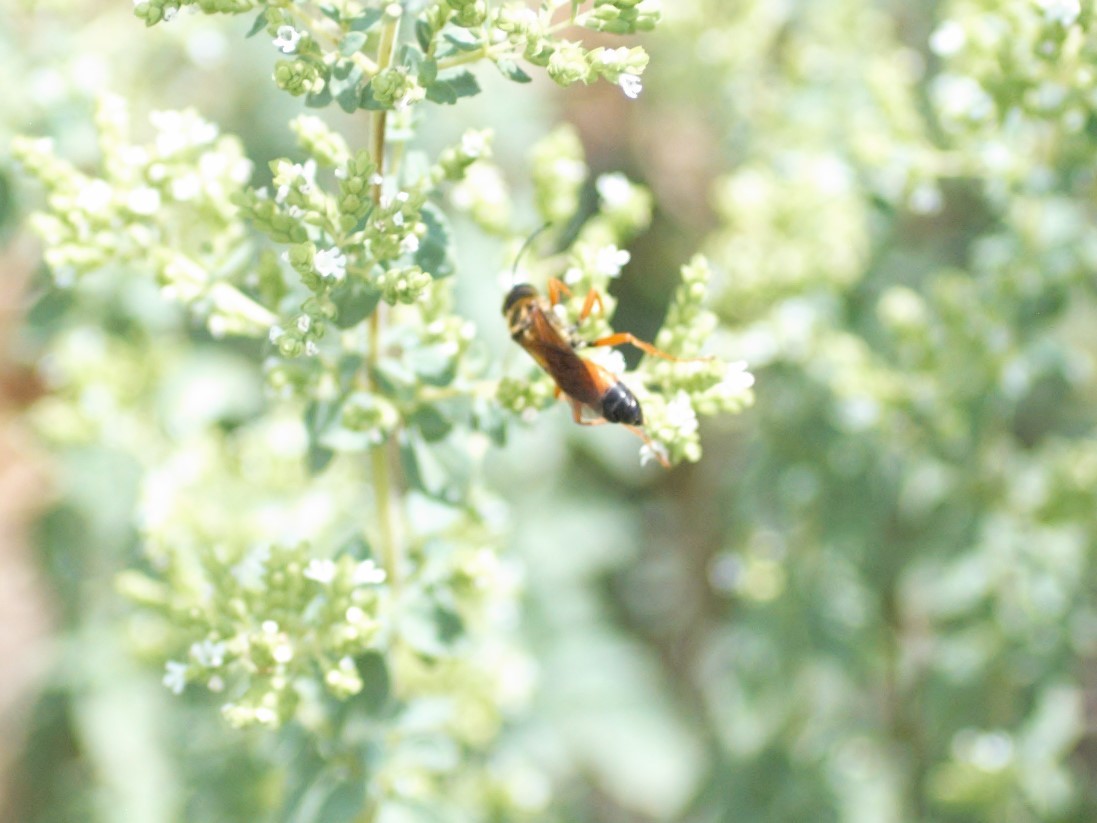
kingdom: Animalia
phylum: Arthropoda
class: Insecta
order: Hymenoptera
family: Sphecidae
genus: Sphex
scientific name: Sphex ichneumoneus
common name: Great golden digger wasp
